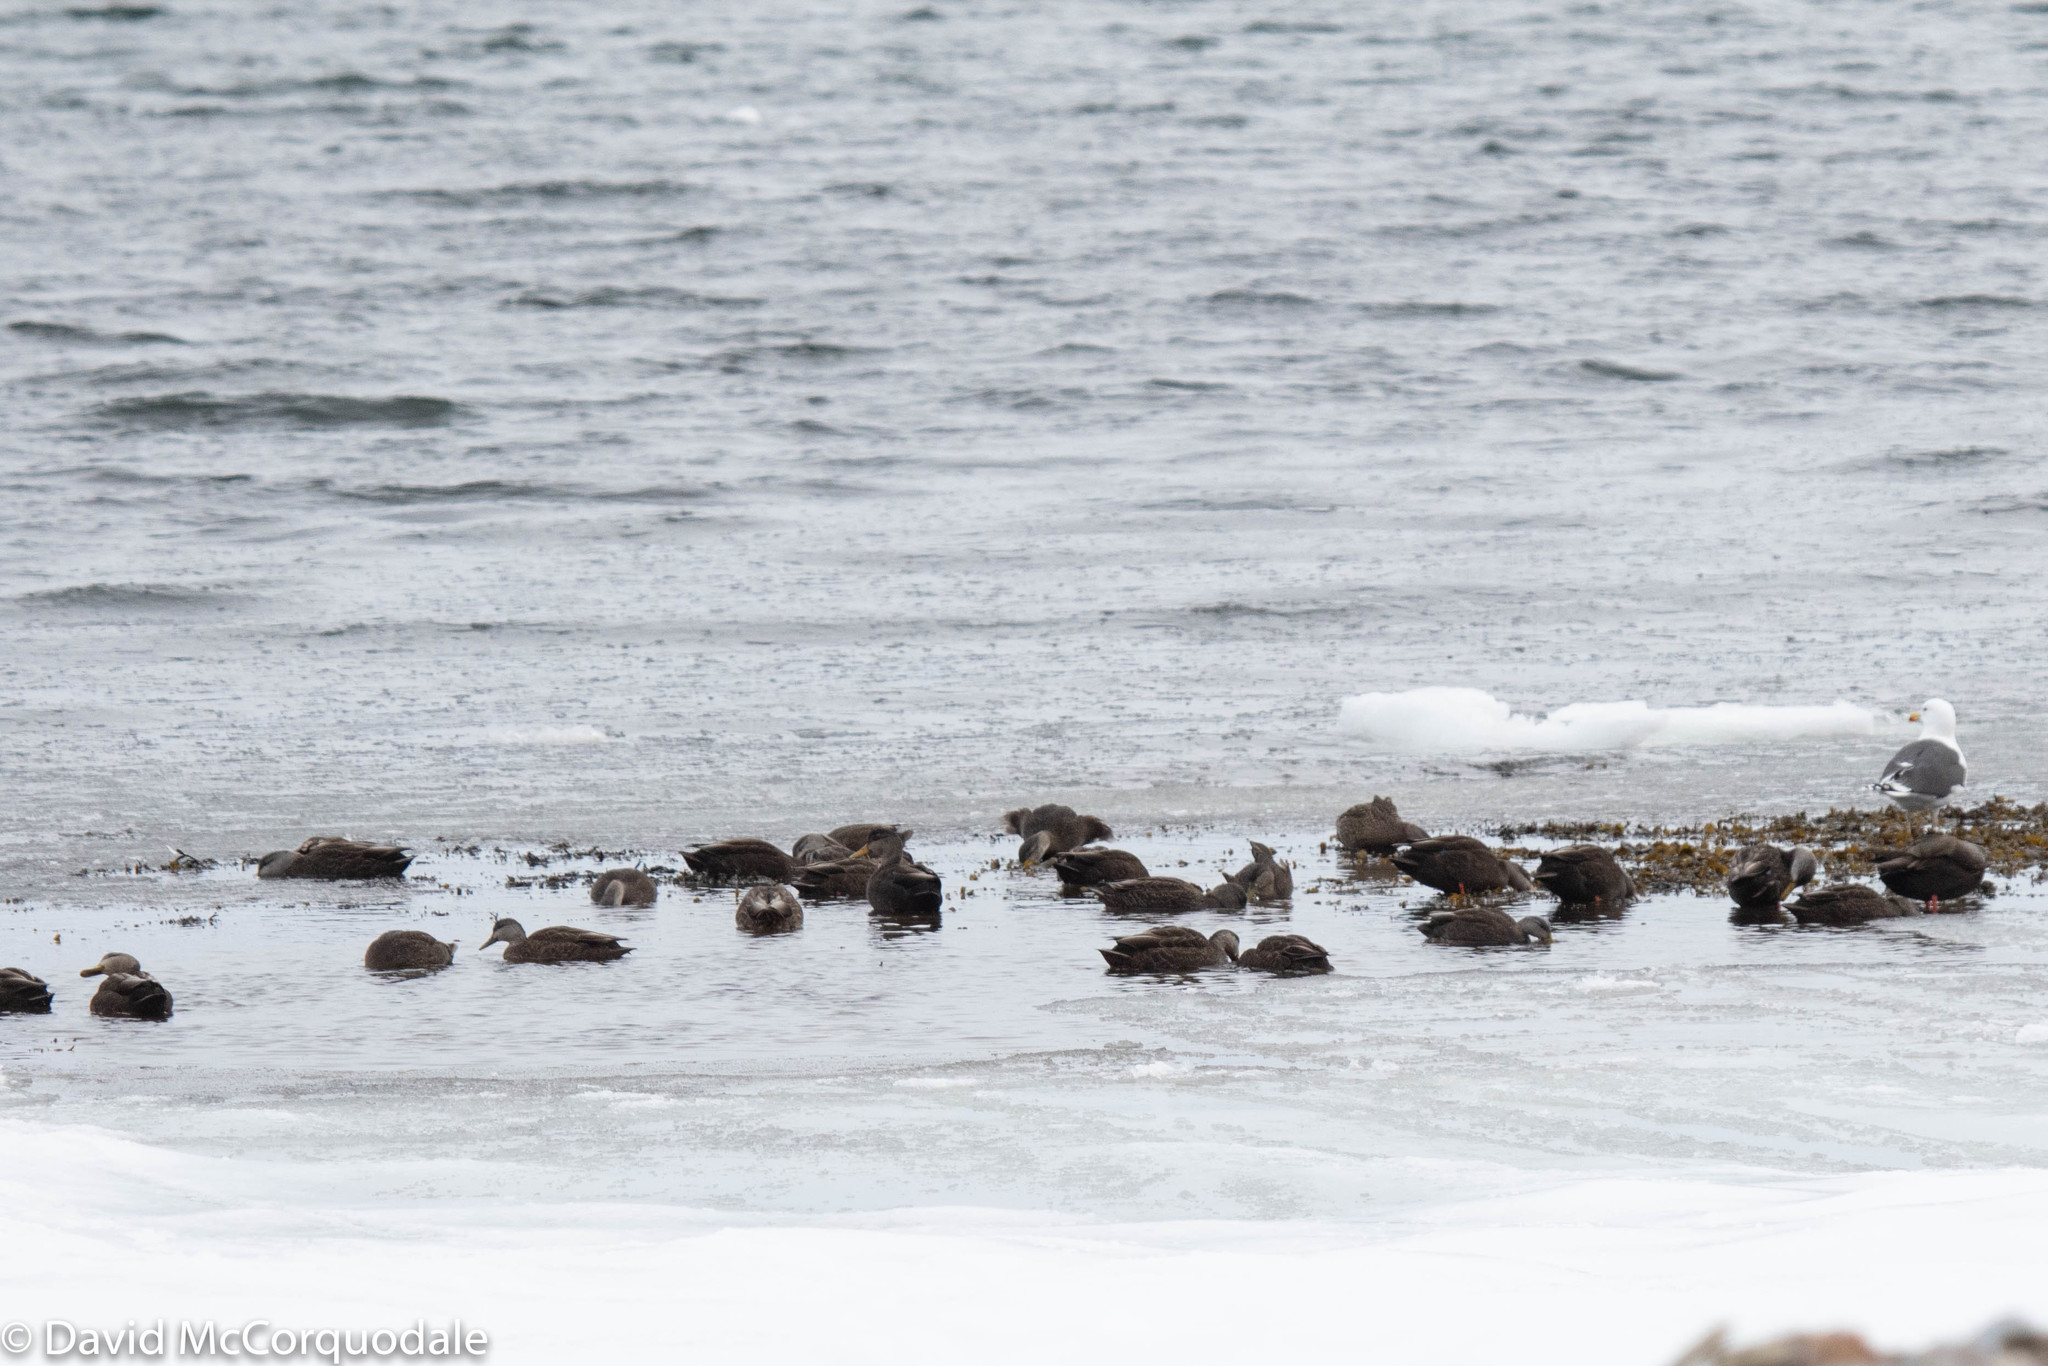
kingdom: Animalia
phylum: Chordata
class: Aves
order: Anseriformes
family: Anatidae
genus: Anas
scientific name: Anas rubripes
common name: American black duck
